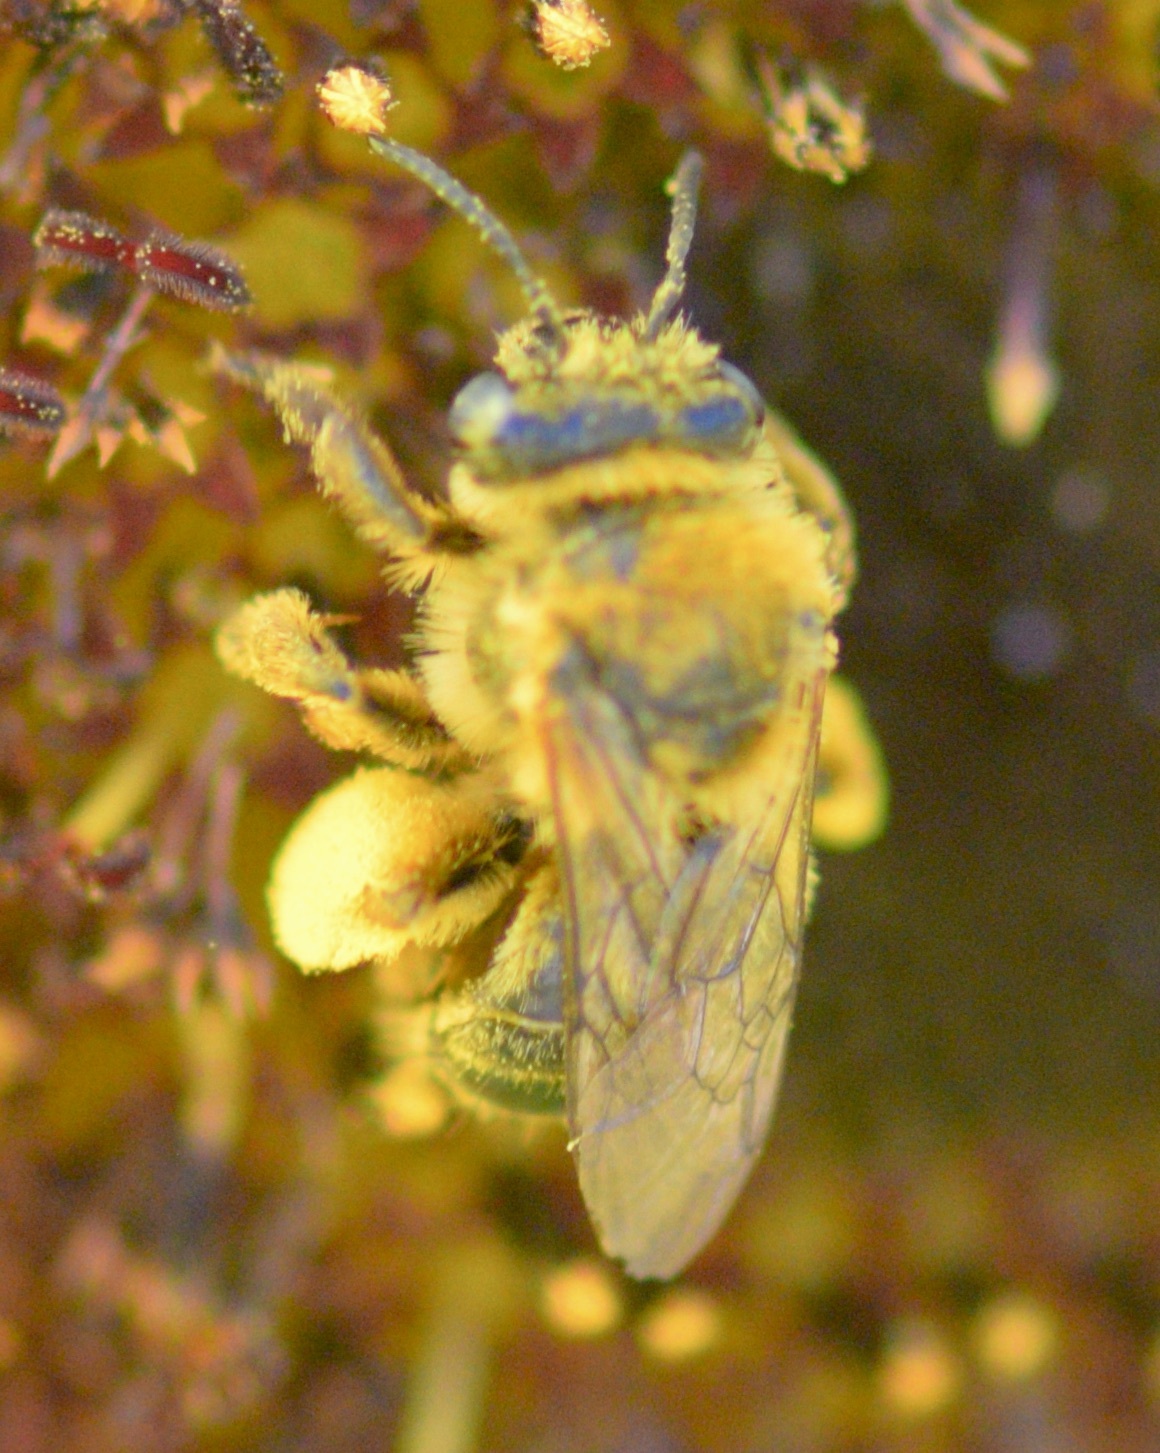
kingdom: Animalia
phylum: Arthropoda
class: Insecta
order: Hymenoptera
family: Apidae
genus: Melissodes
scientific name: Melissodes trinodis
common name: Dark-veined longhorn
